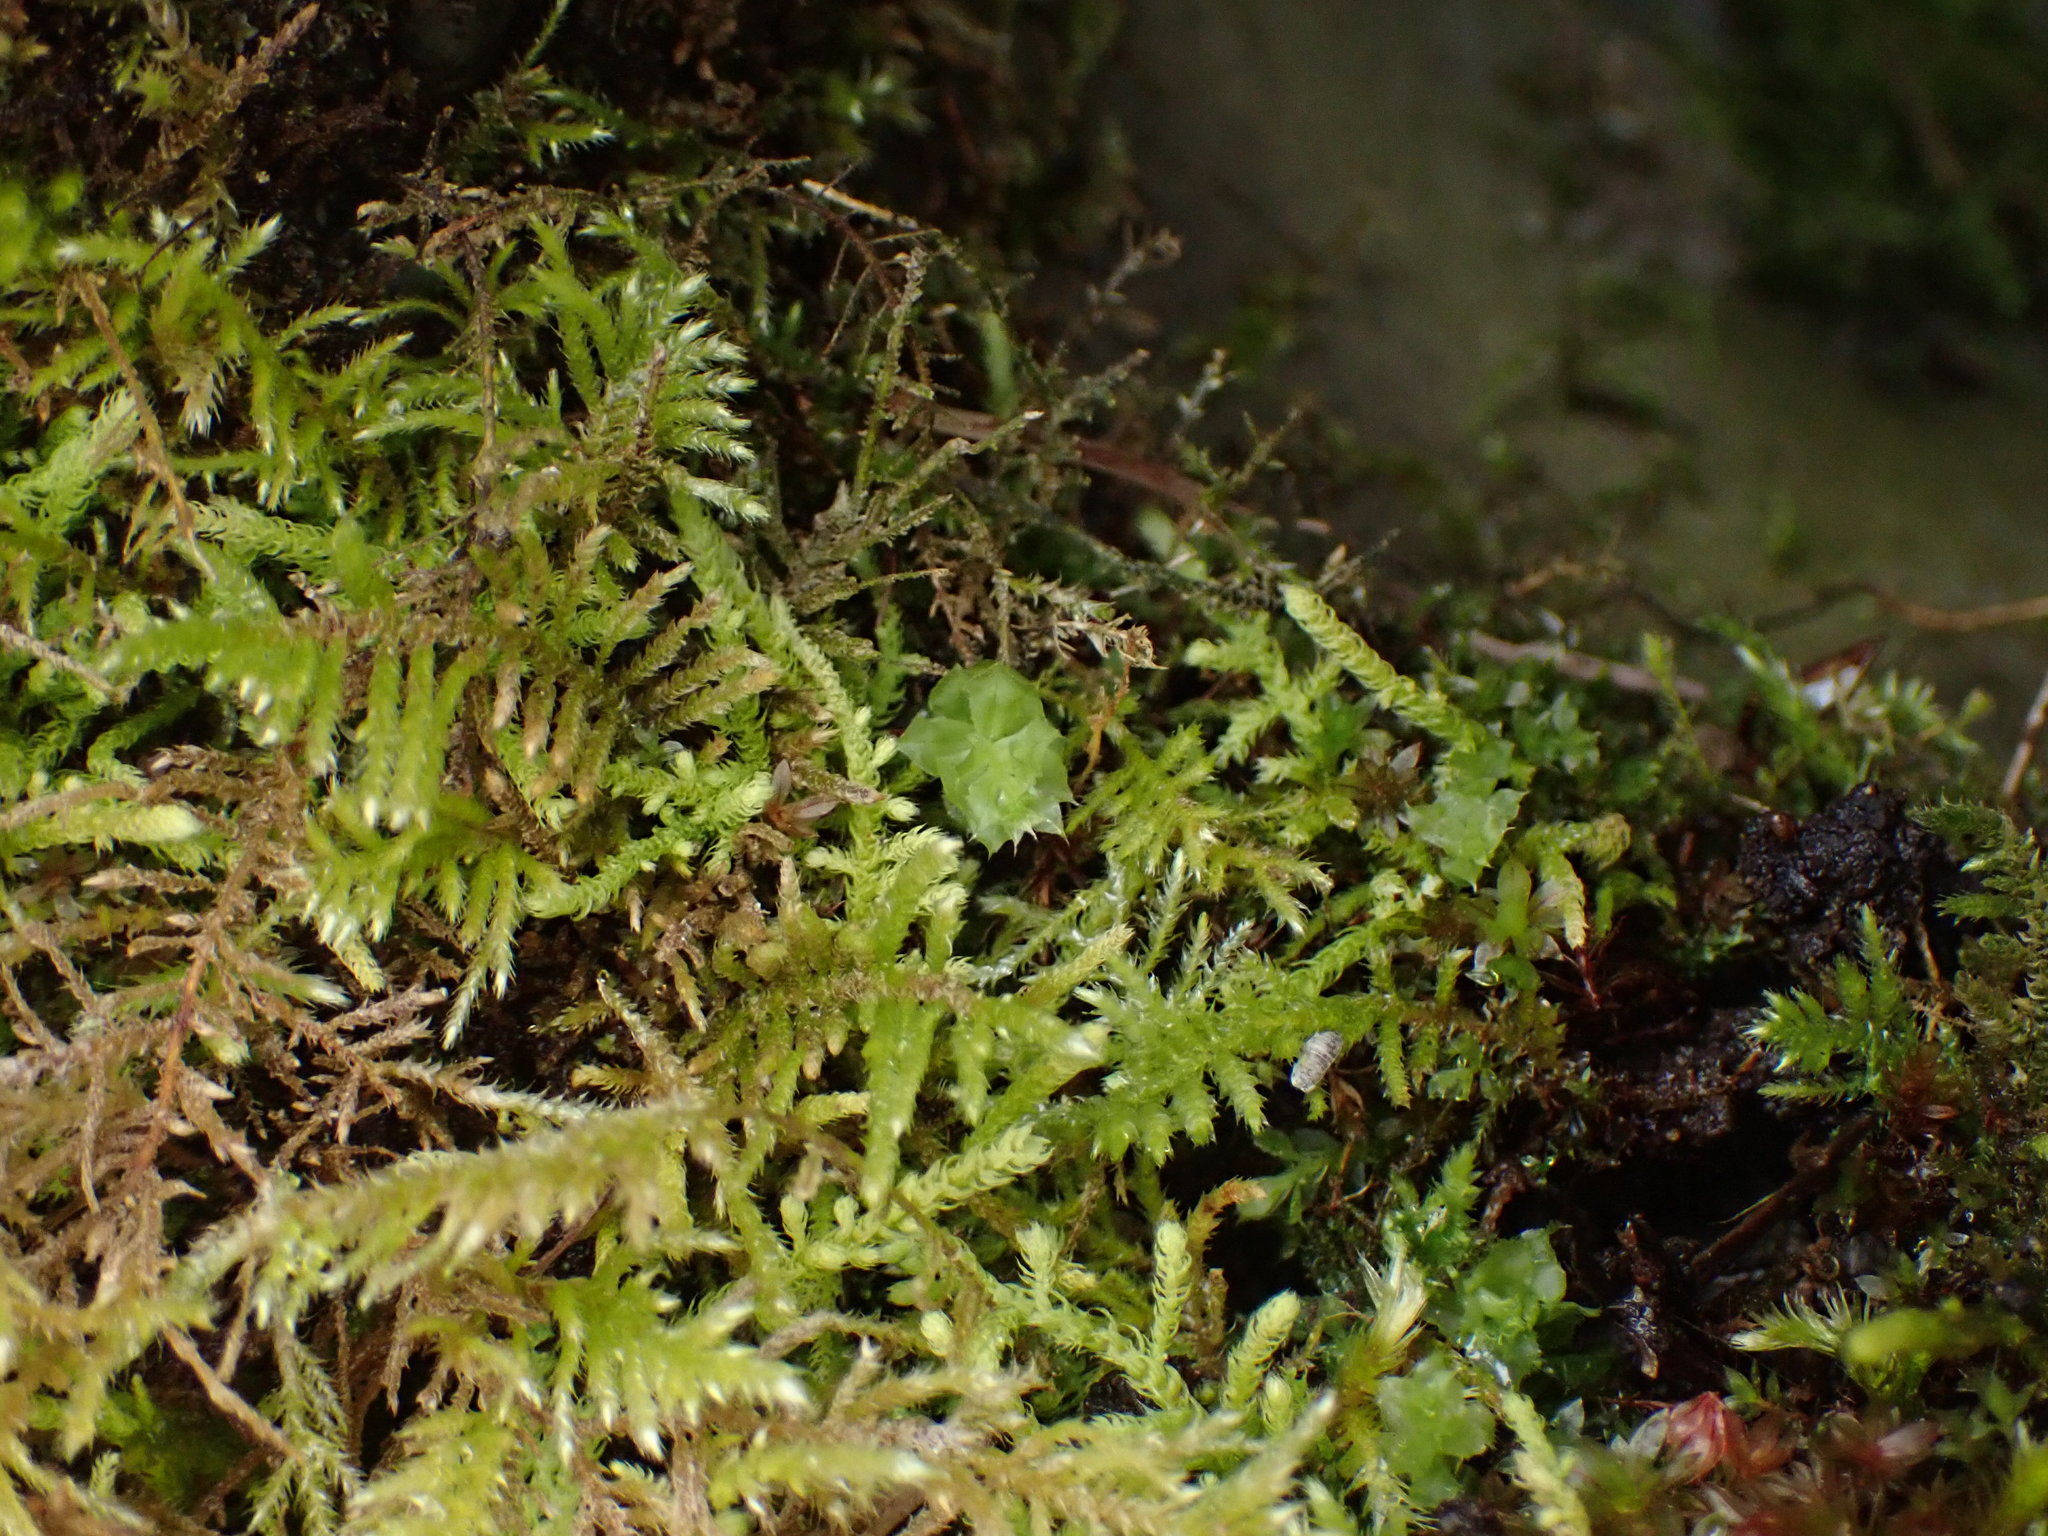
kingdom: Plantae
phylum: Bryophyta
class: Bryopsida
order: Bryales
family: Mniaceae
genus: Plagiomnium
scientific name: Plagiomnium venustum
